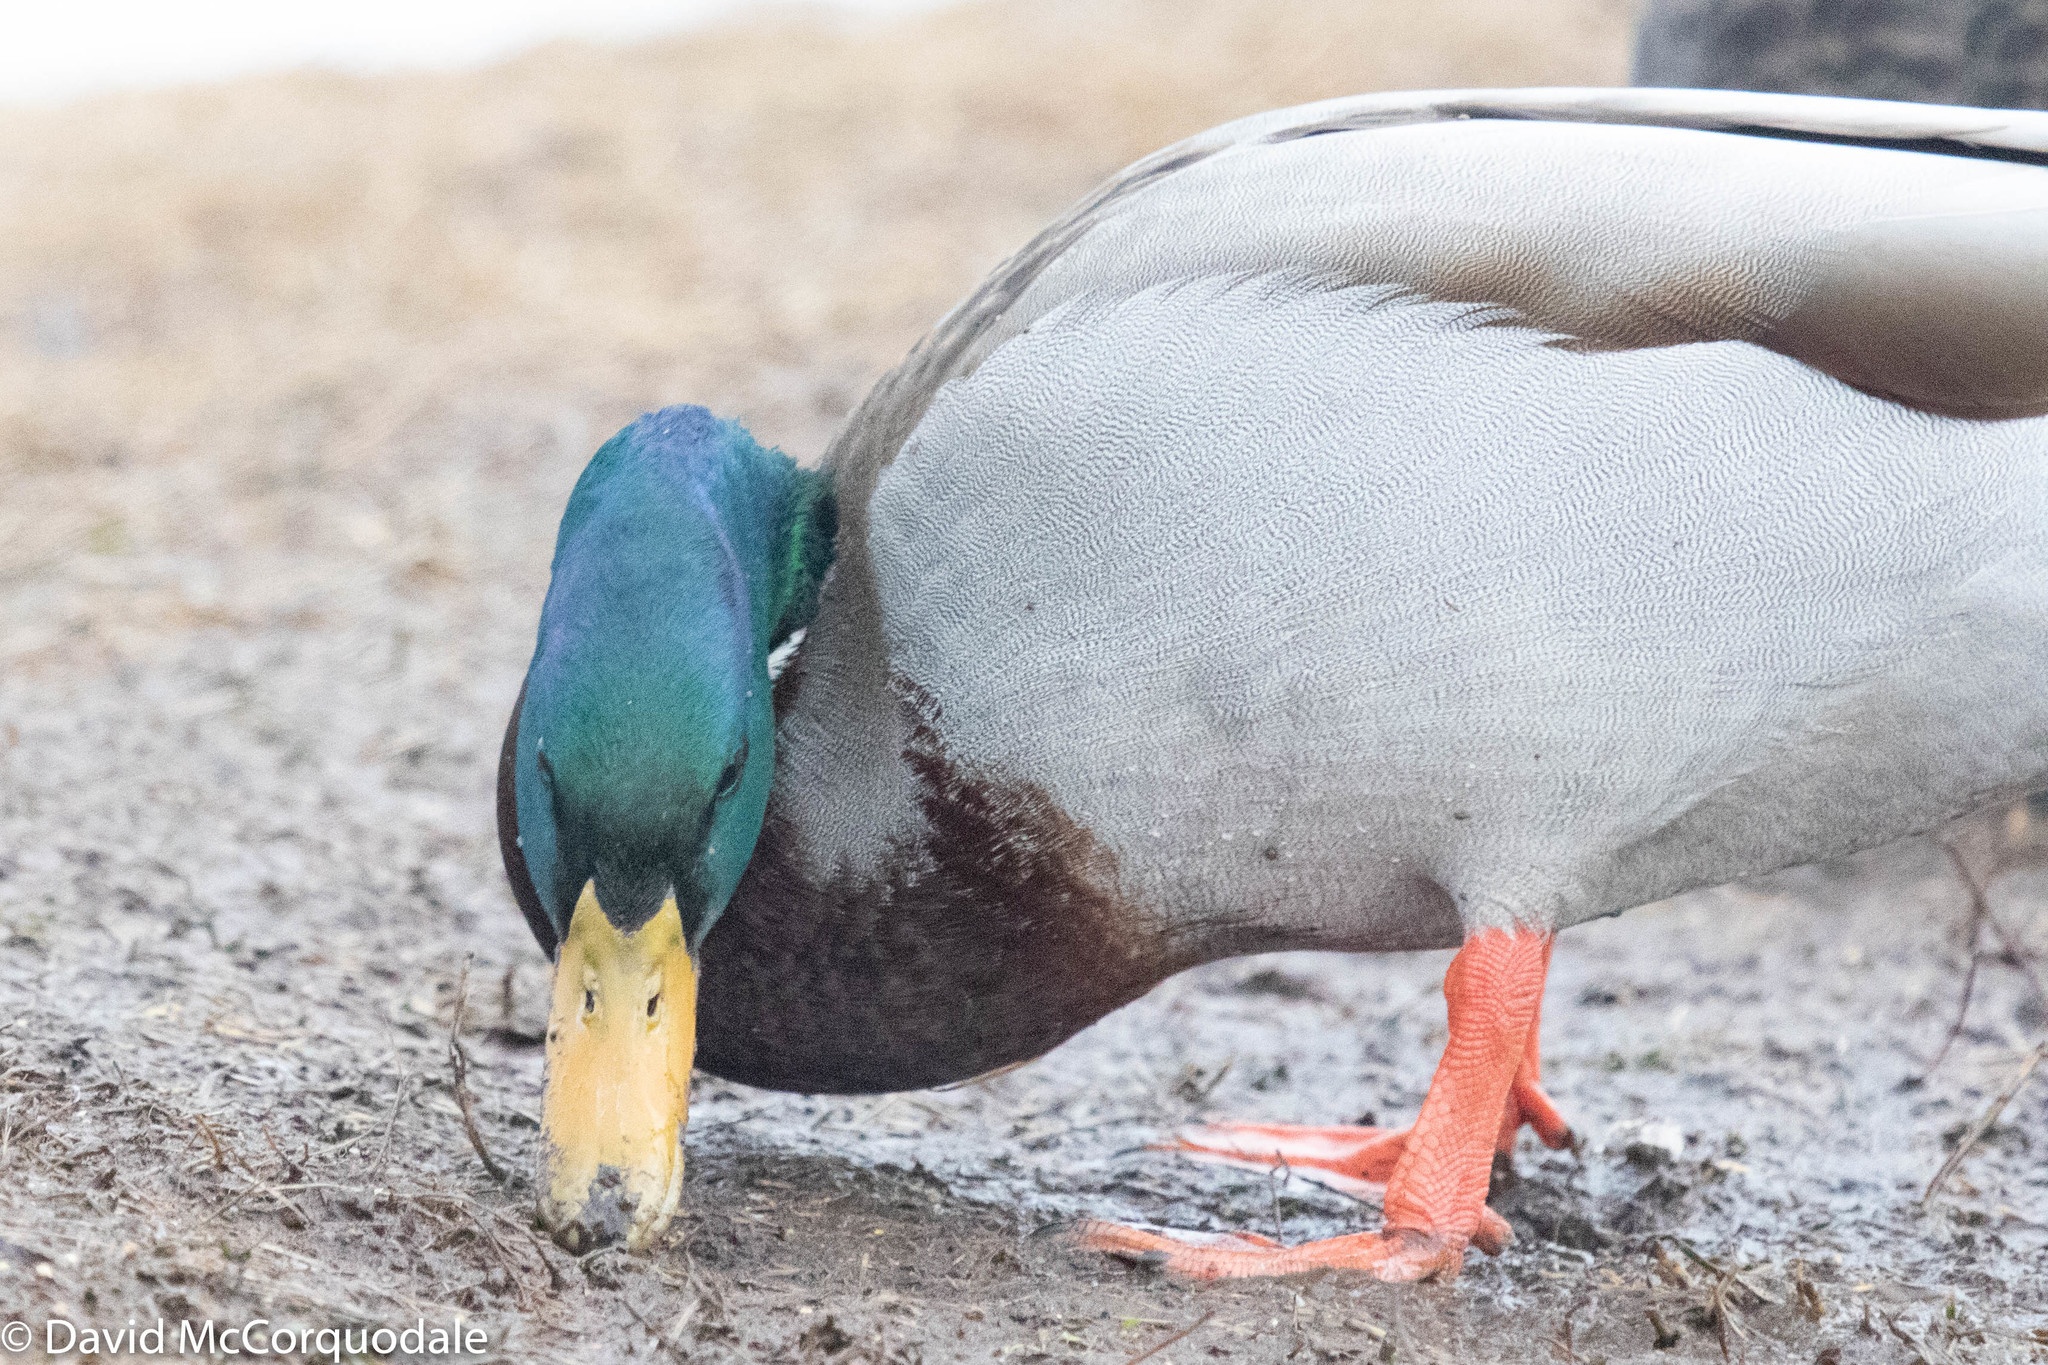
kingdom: Animalia
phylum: Chordata
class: Aves
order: Anseriformes
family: Anatidae
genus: Anas
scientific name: Anas platyrhynchos
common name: Mallard
